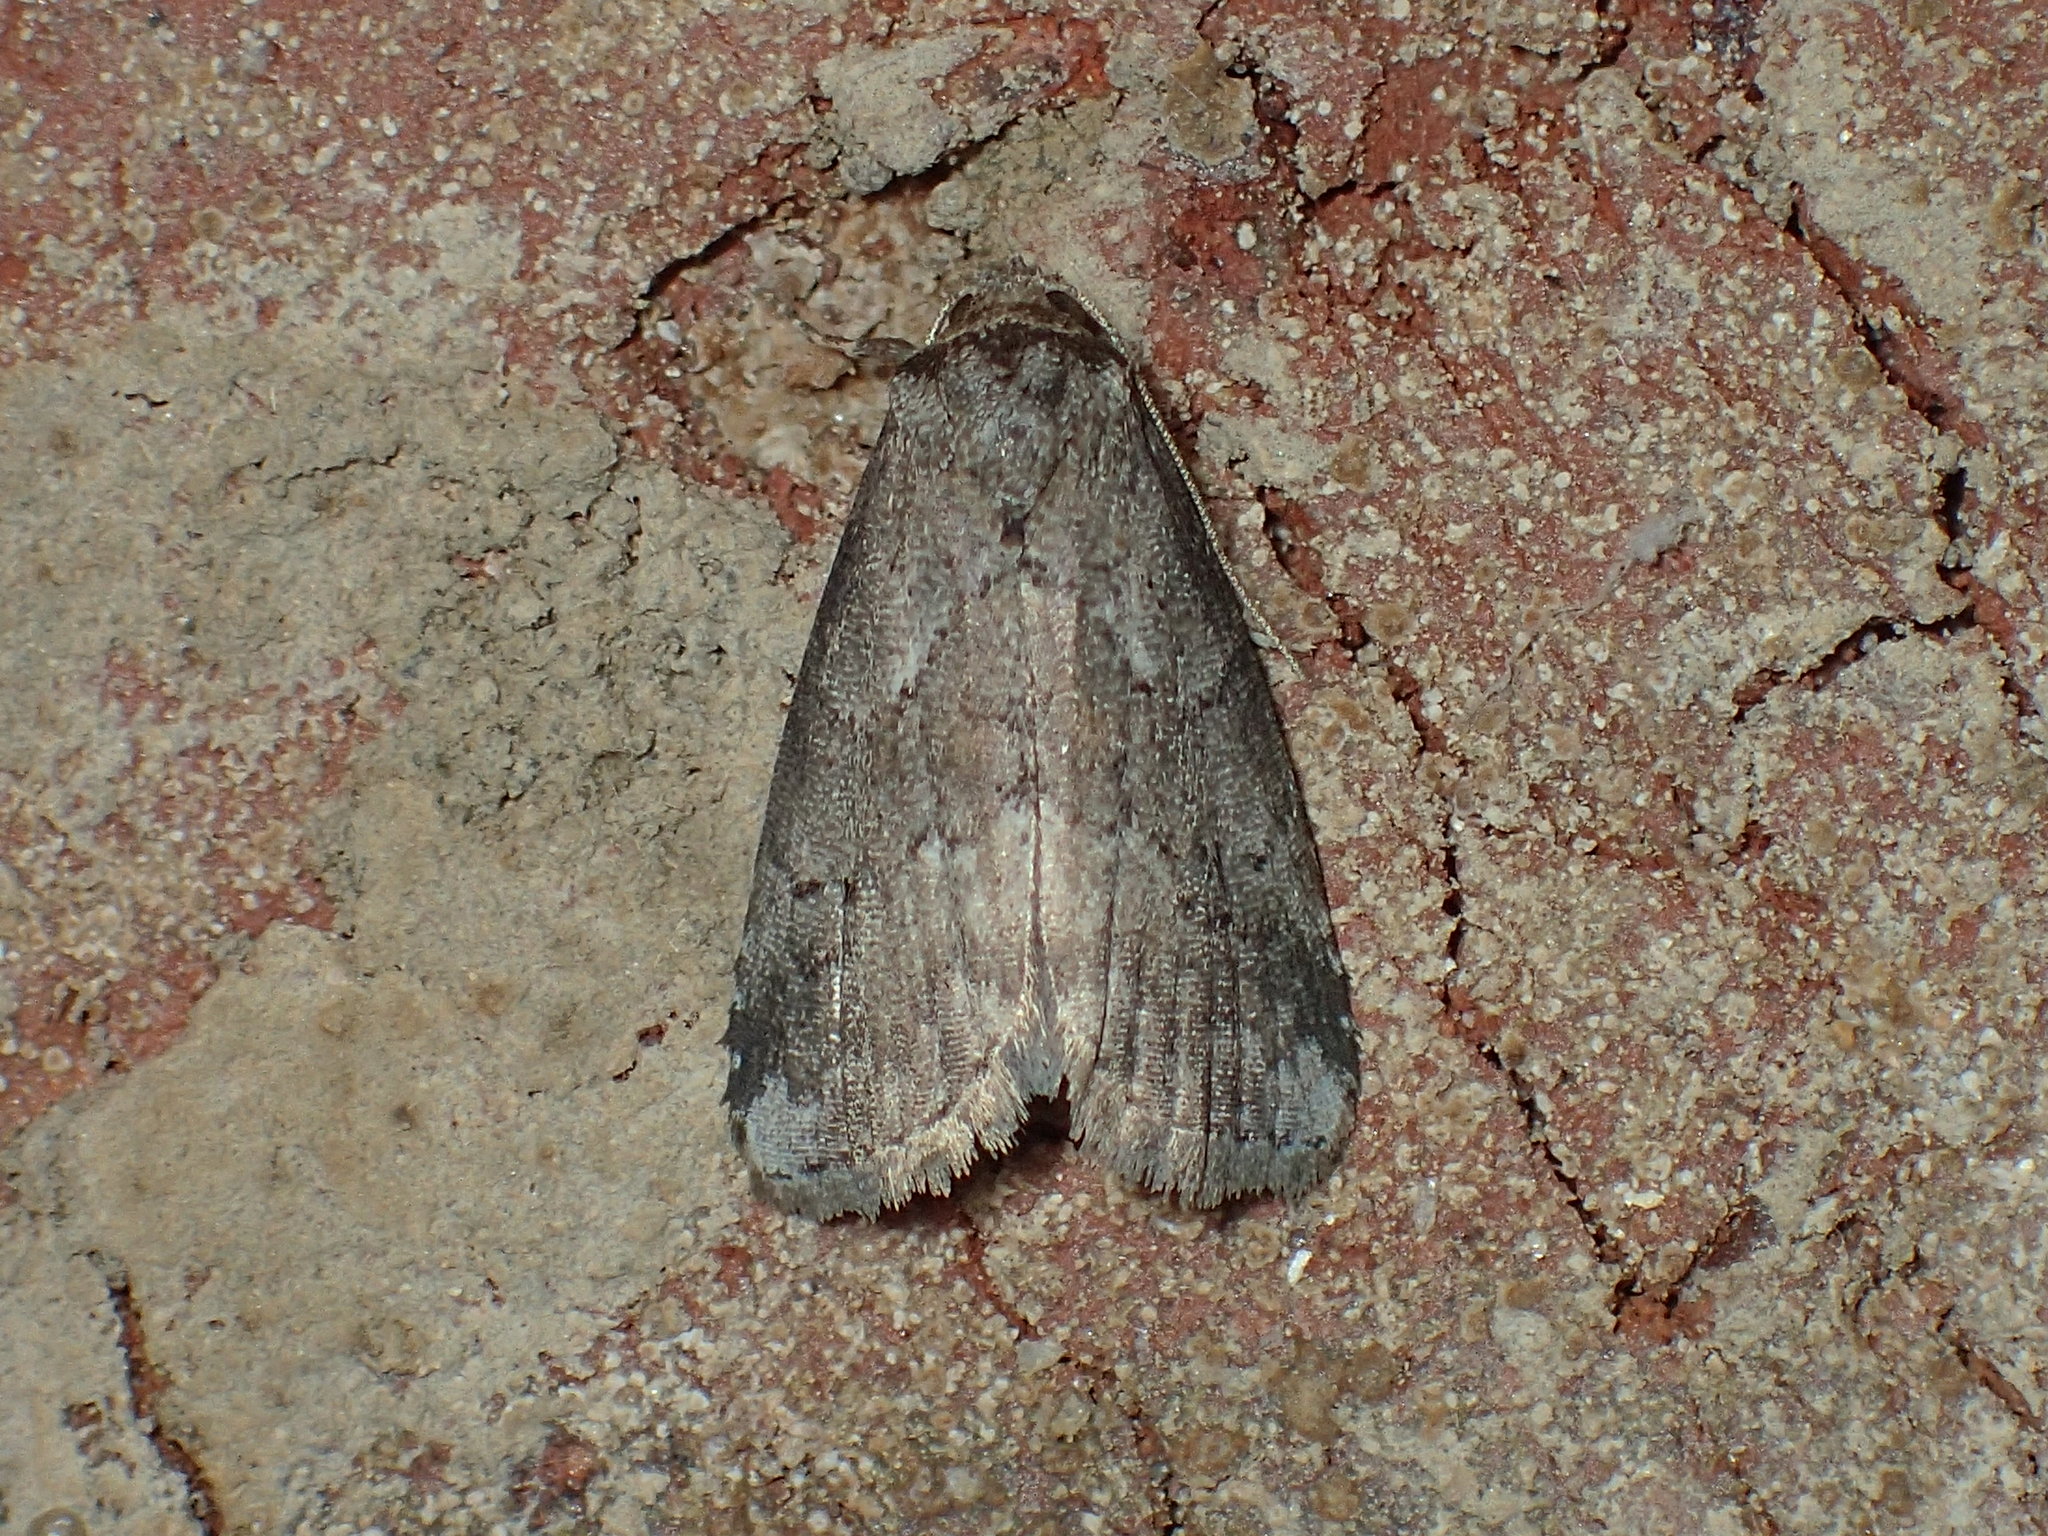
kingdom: Animalia
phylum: Arthropoda
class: Insecta
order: Lepidoptera
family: Erebidae
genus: Hyperstrotia
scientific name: Hyperstrotia pervertens
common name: Dotted graylet
